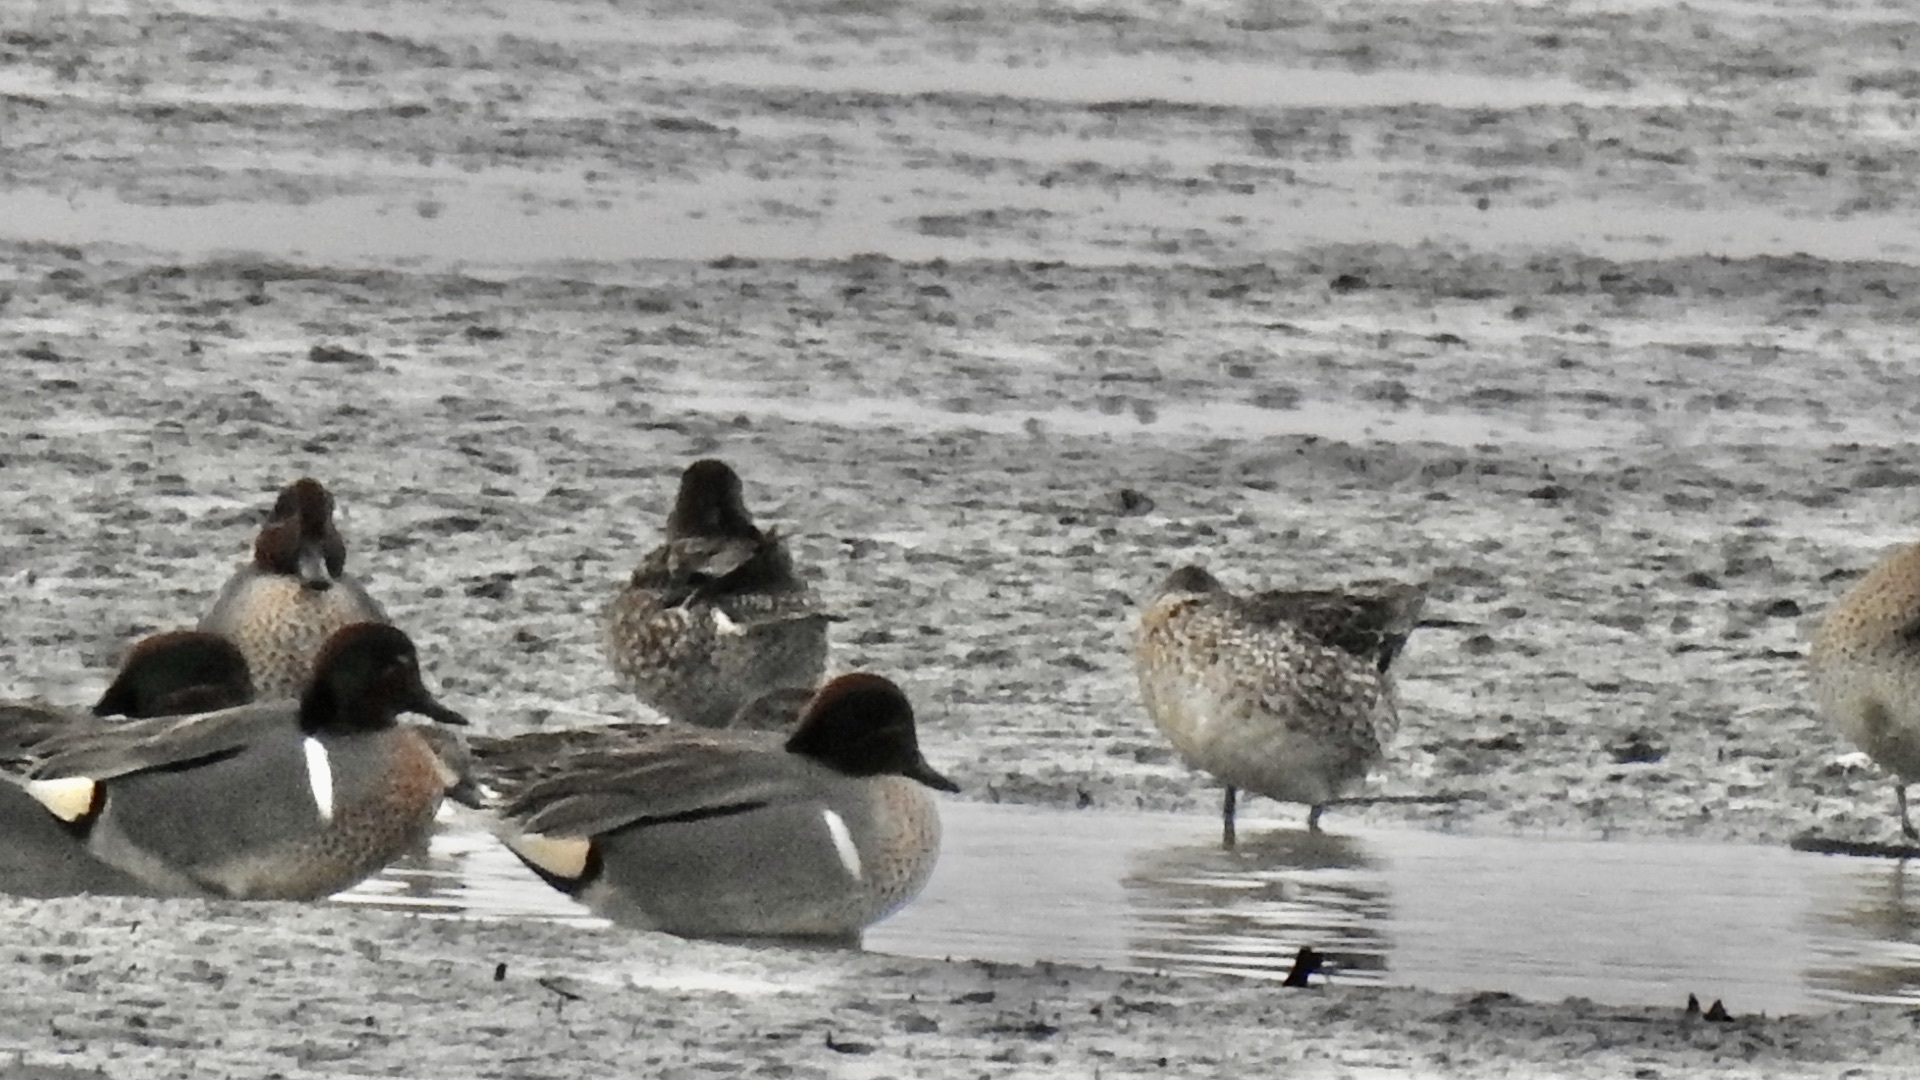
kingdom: Animalia
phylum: Chordata
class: Aves
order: Anseriformes
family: Anatidae
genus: Anas
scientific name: Anas crecca
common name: Eurasian teal
